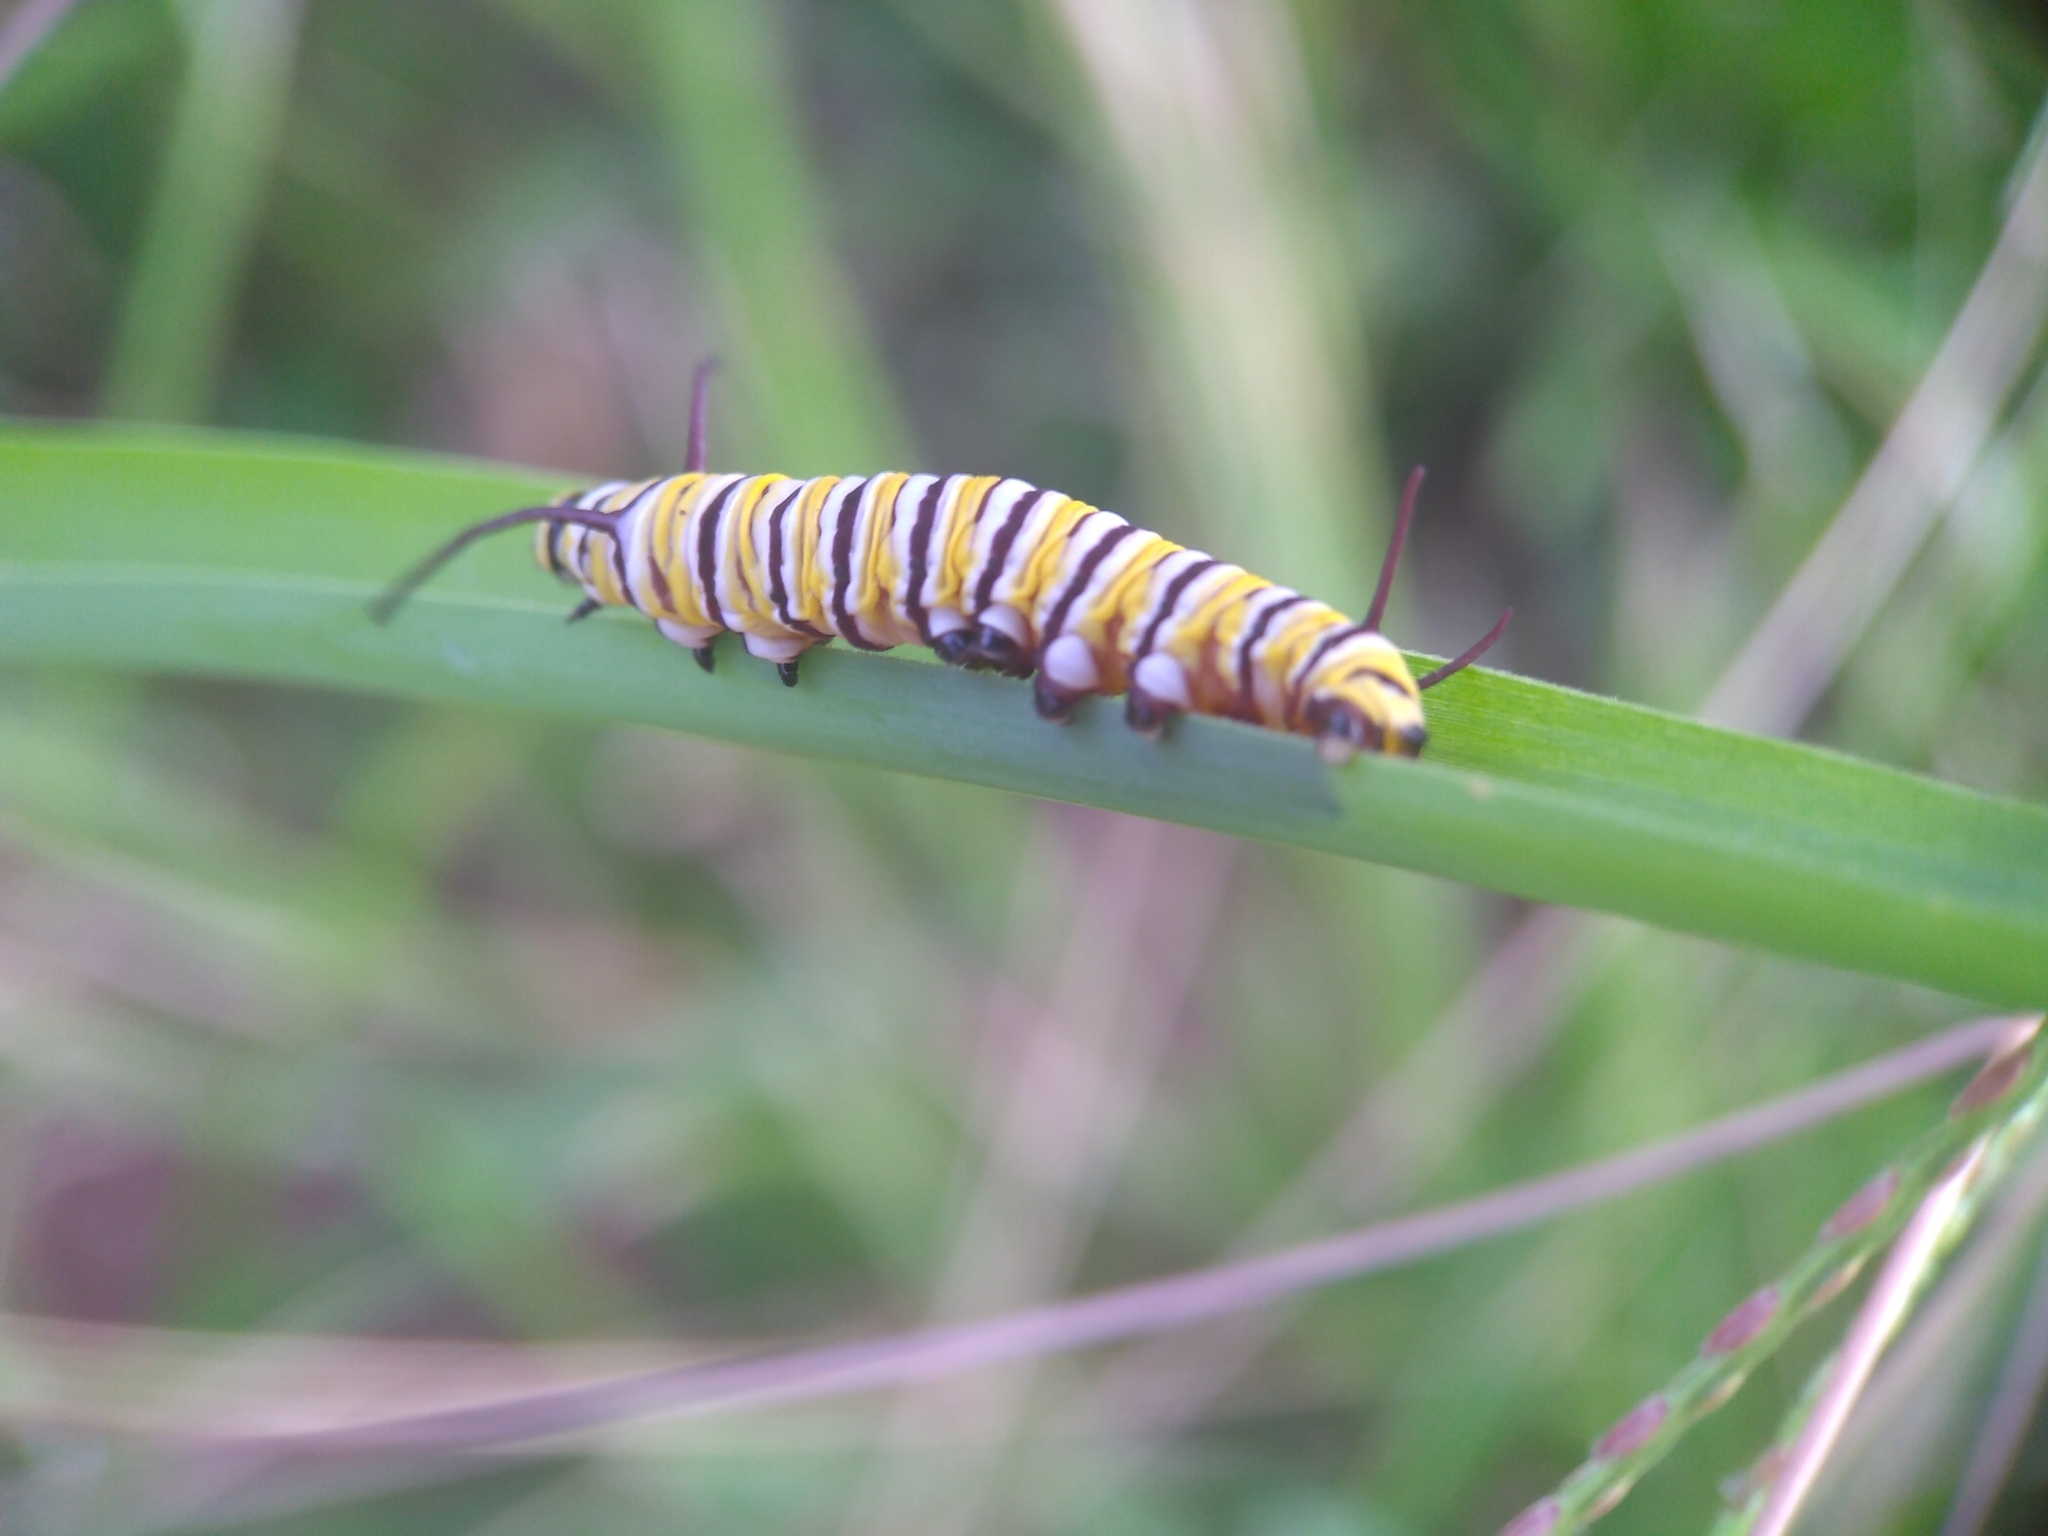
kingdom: Animalia
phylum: Arthropoda
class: Insecta
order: Lepidoptera
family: Nymphalidae
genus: Danaus
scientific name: Danaus plexippus
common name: Monarch
